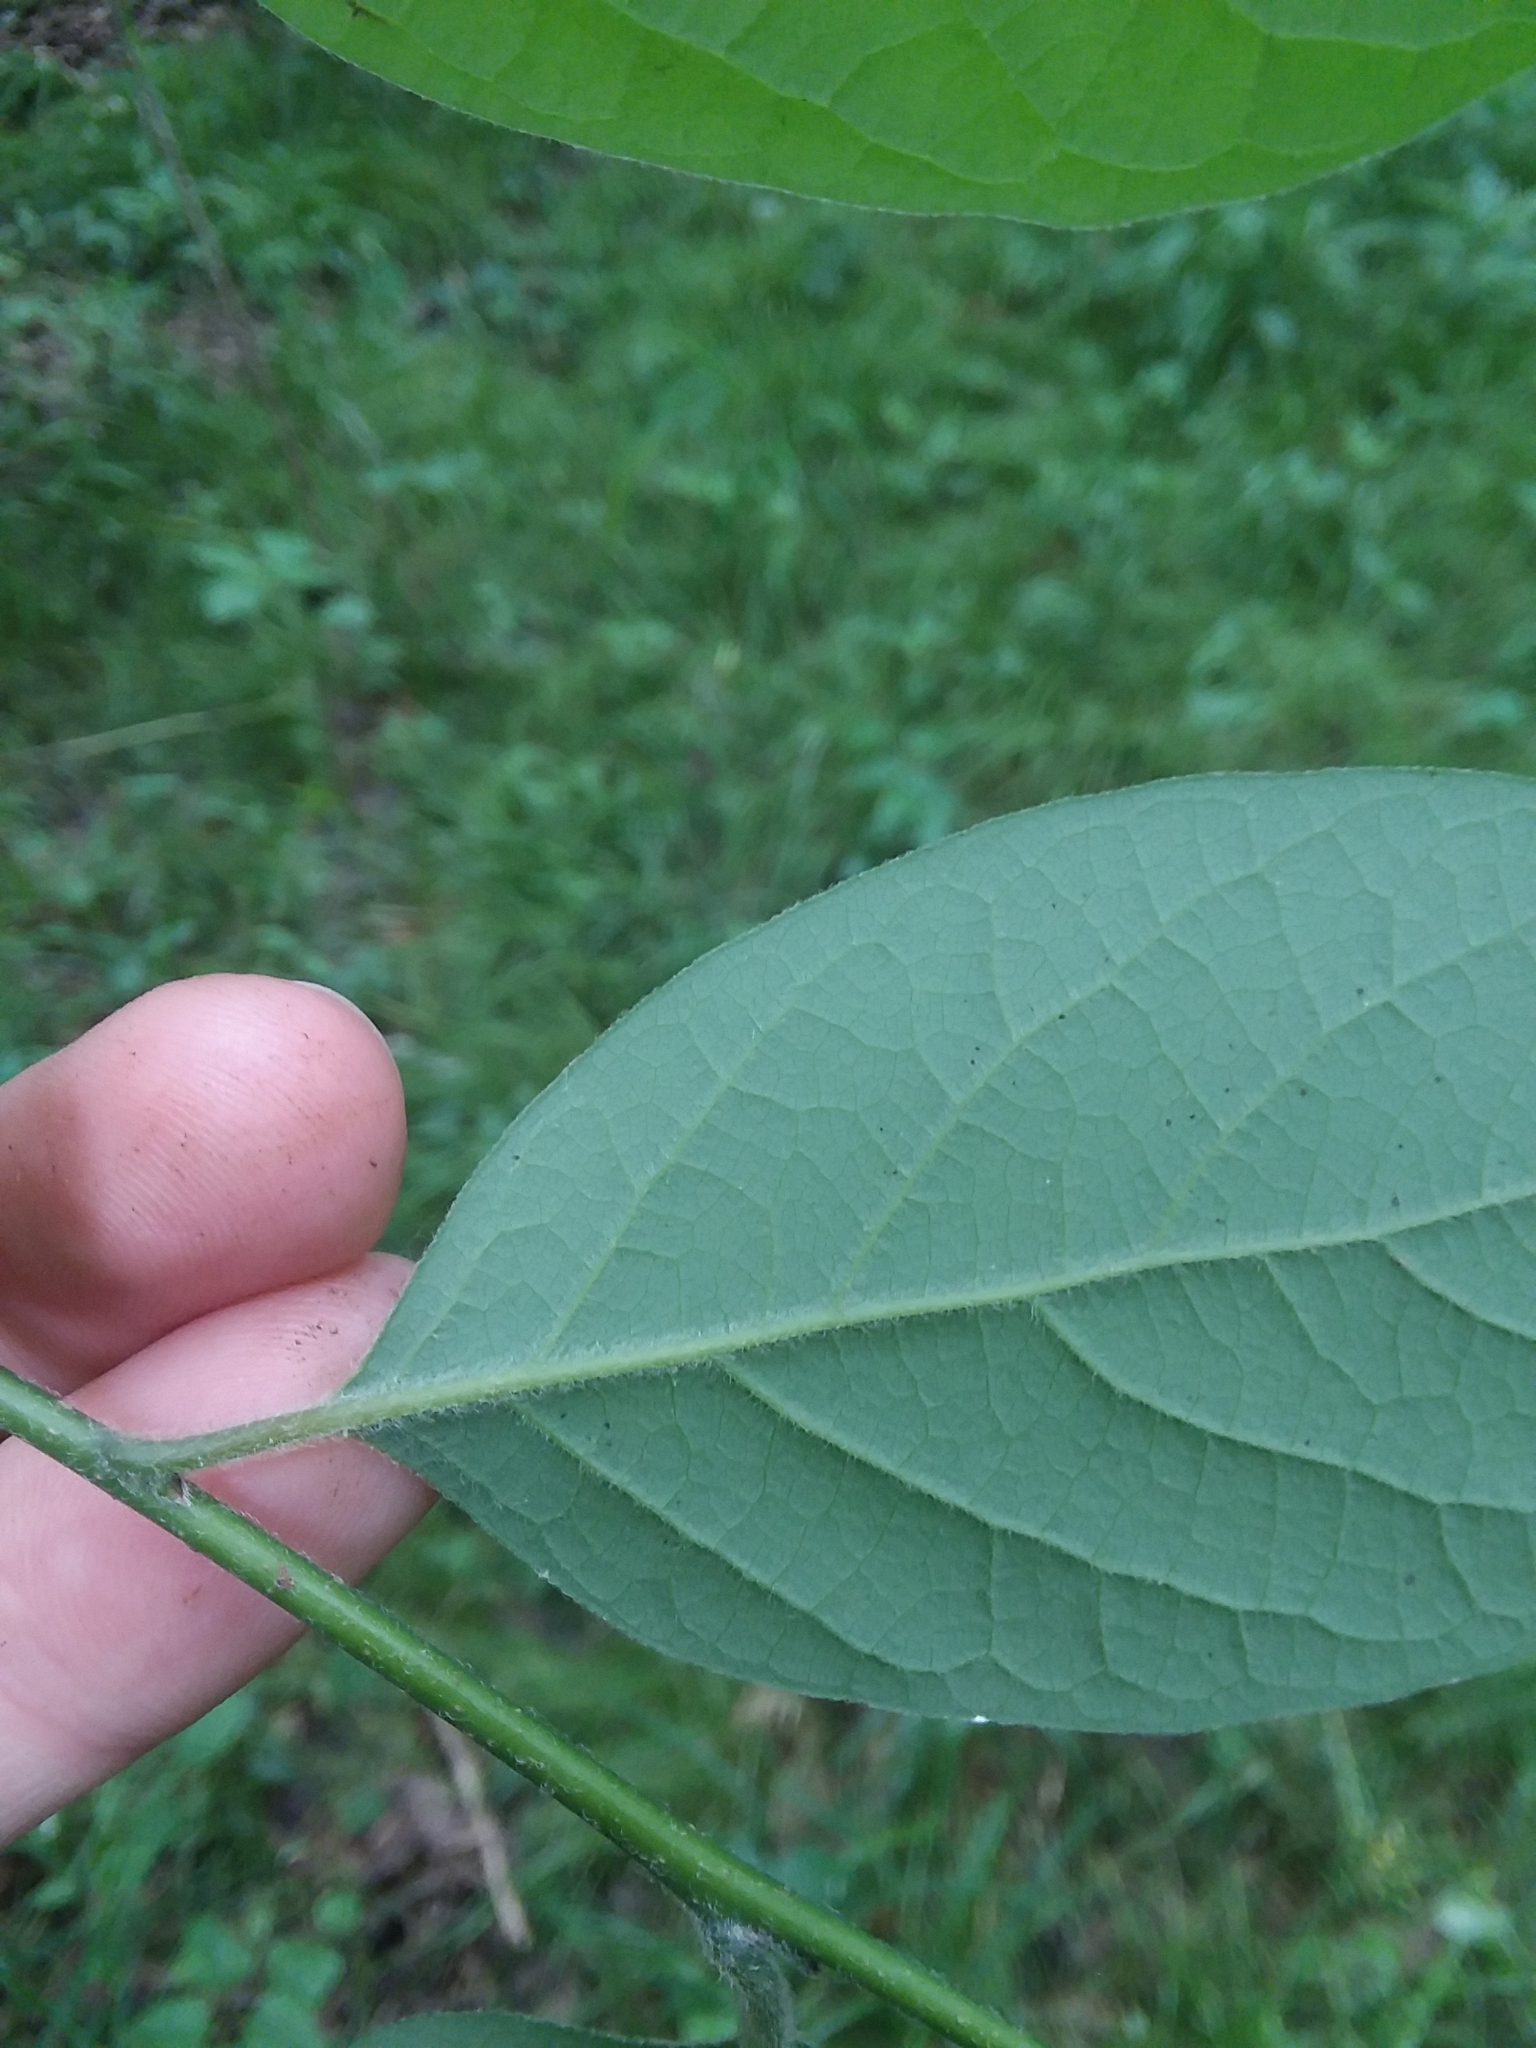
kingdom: Plantae
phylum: Tracheophyta
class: Magnoliopsida
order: Laurales
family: Lauraceae
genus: Lindera
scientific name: Lindera benzoin
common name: Spicebush
